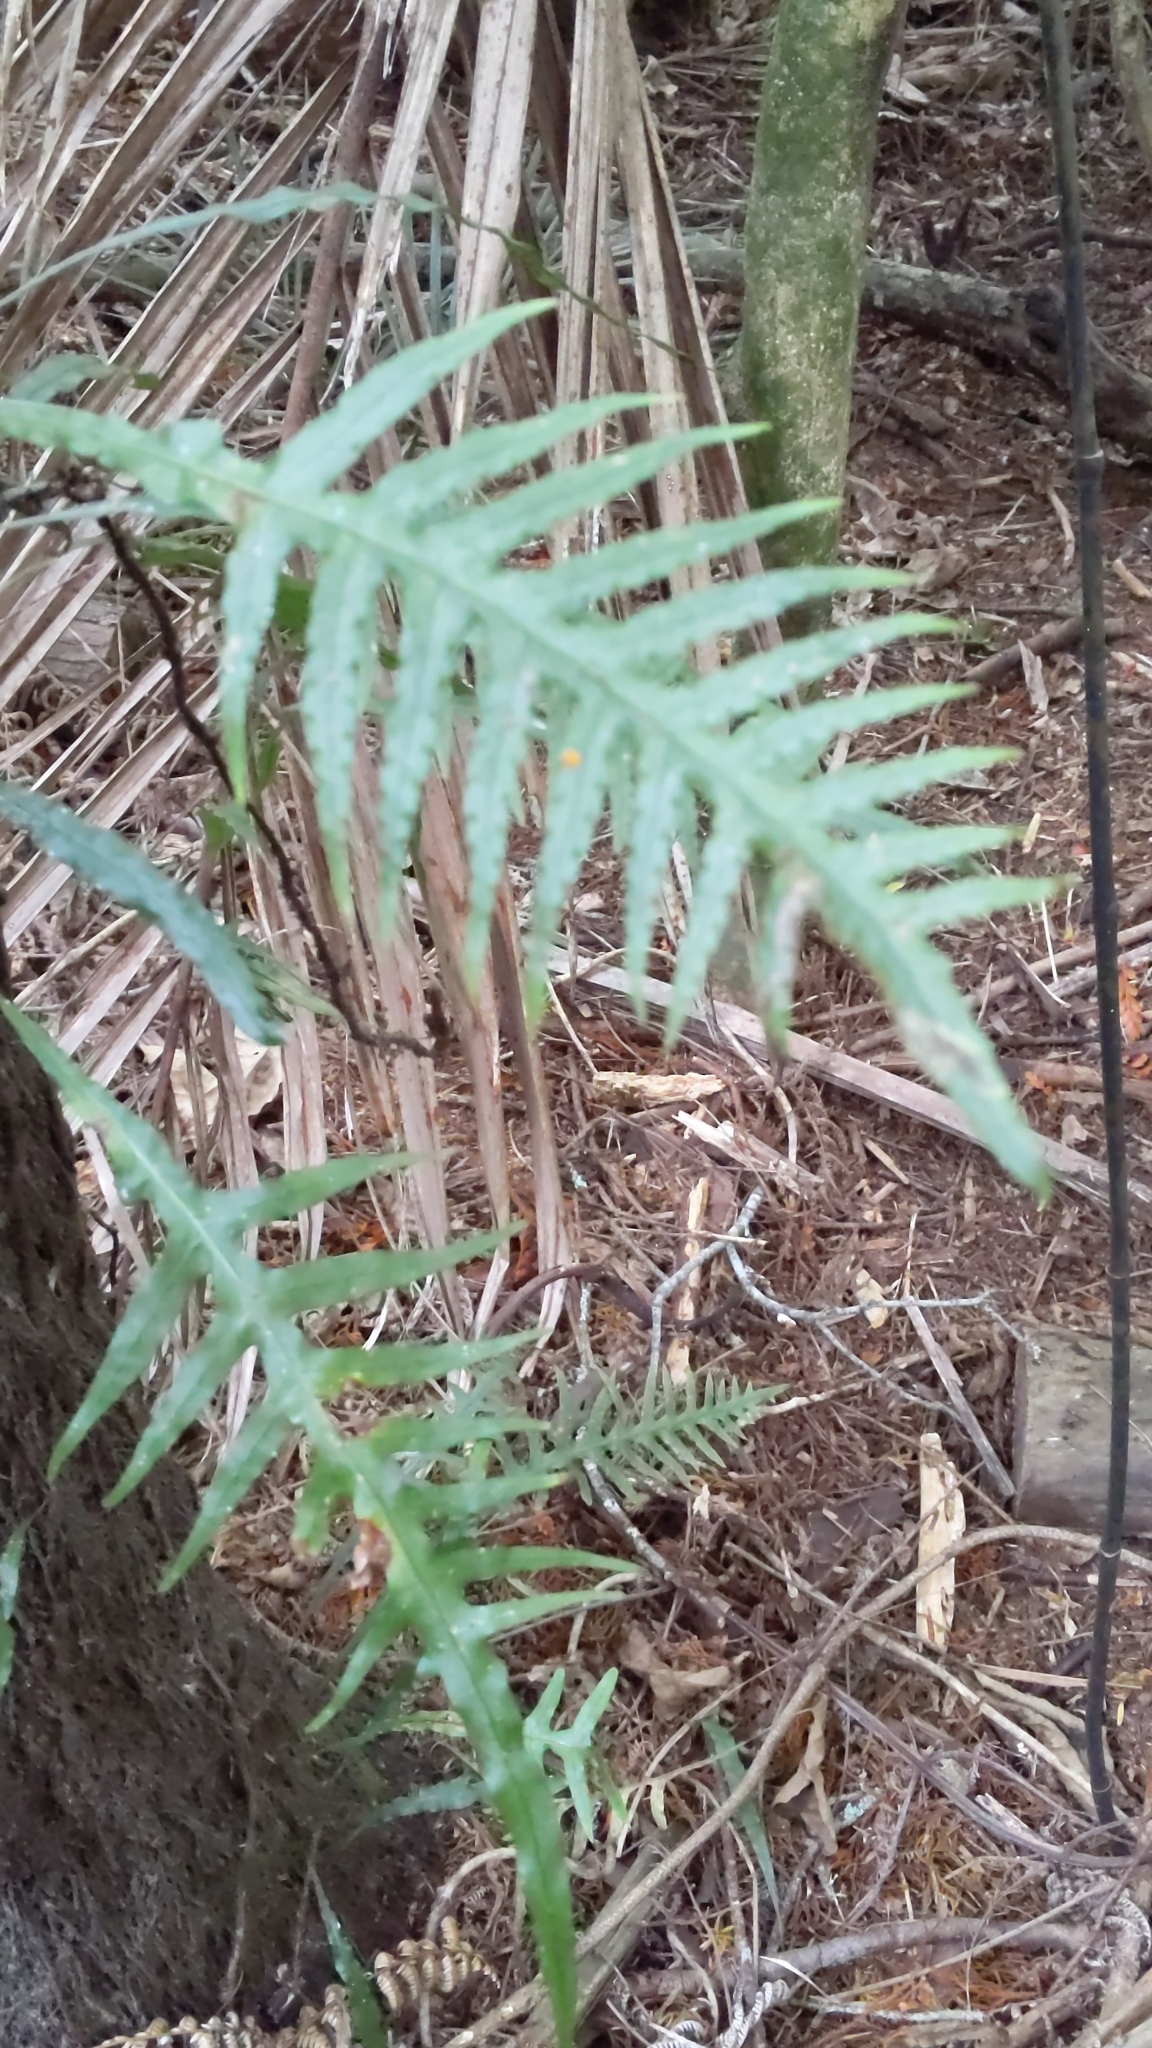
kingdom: Plantae
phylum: Tracheophyta
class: Polypodiopsida
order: Polypodiales
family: Polypodiaceae
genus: Lecanopteris
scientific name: Lecanopteris scandens
